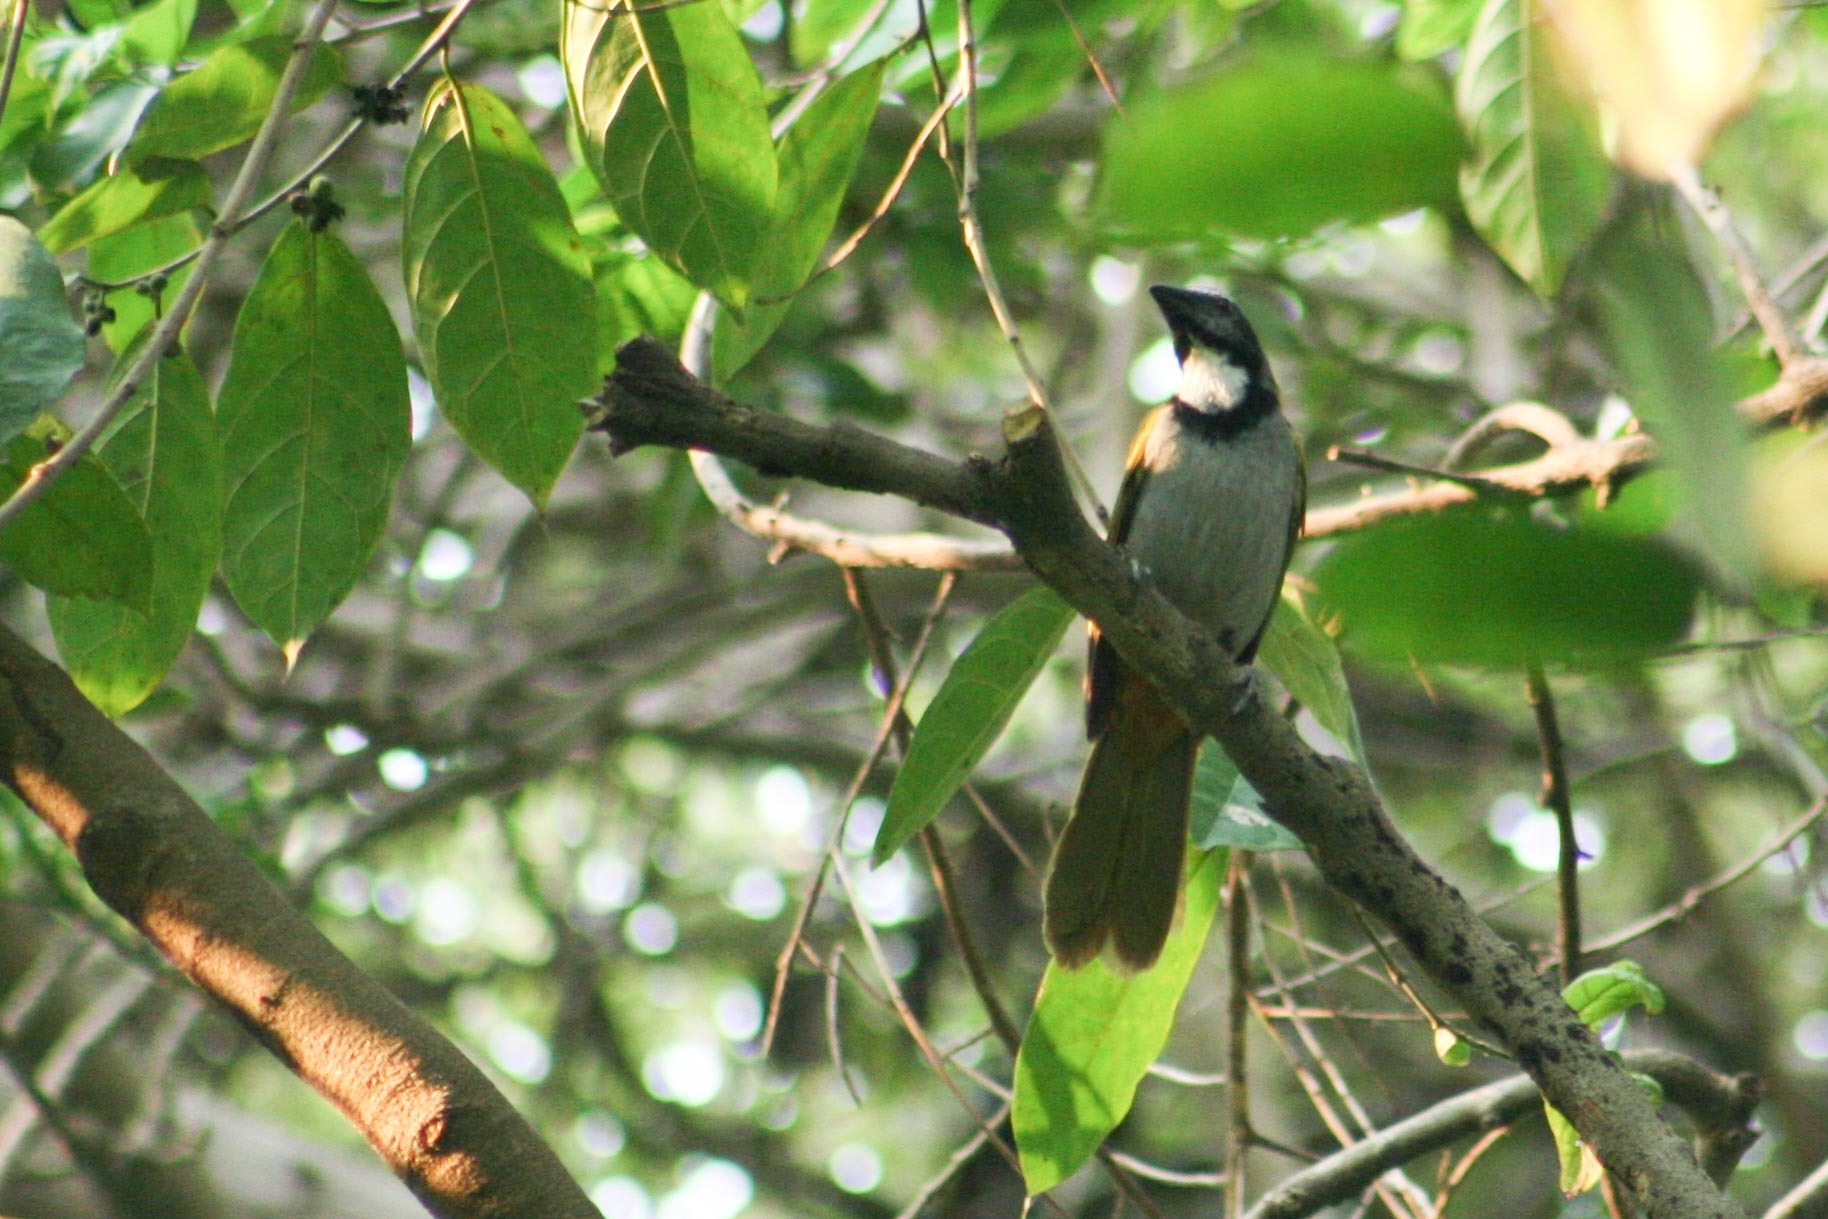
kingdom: Animalia
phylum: Chordata
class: Aves
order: Passeriformes
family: Thraupidae
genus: Saltator
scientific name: Saltator atriceps
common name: Black-headed saltator
